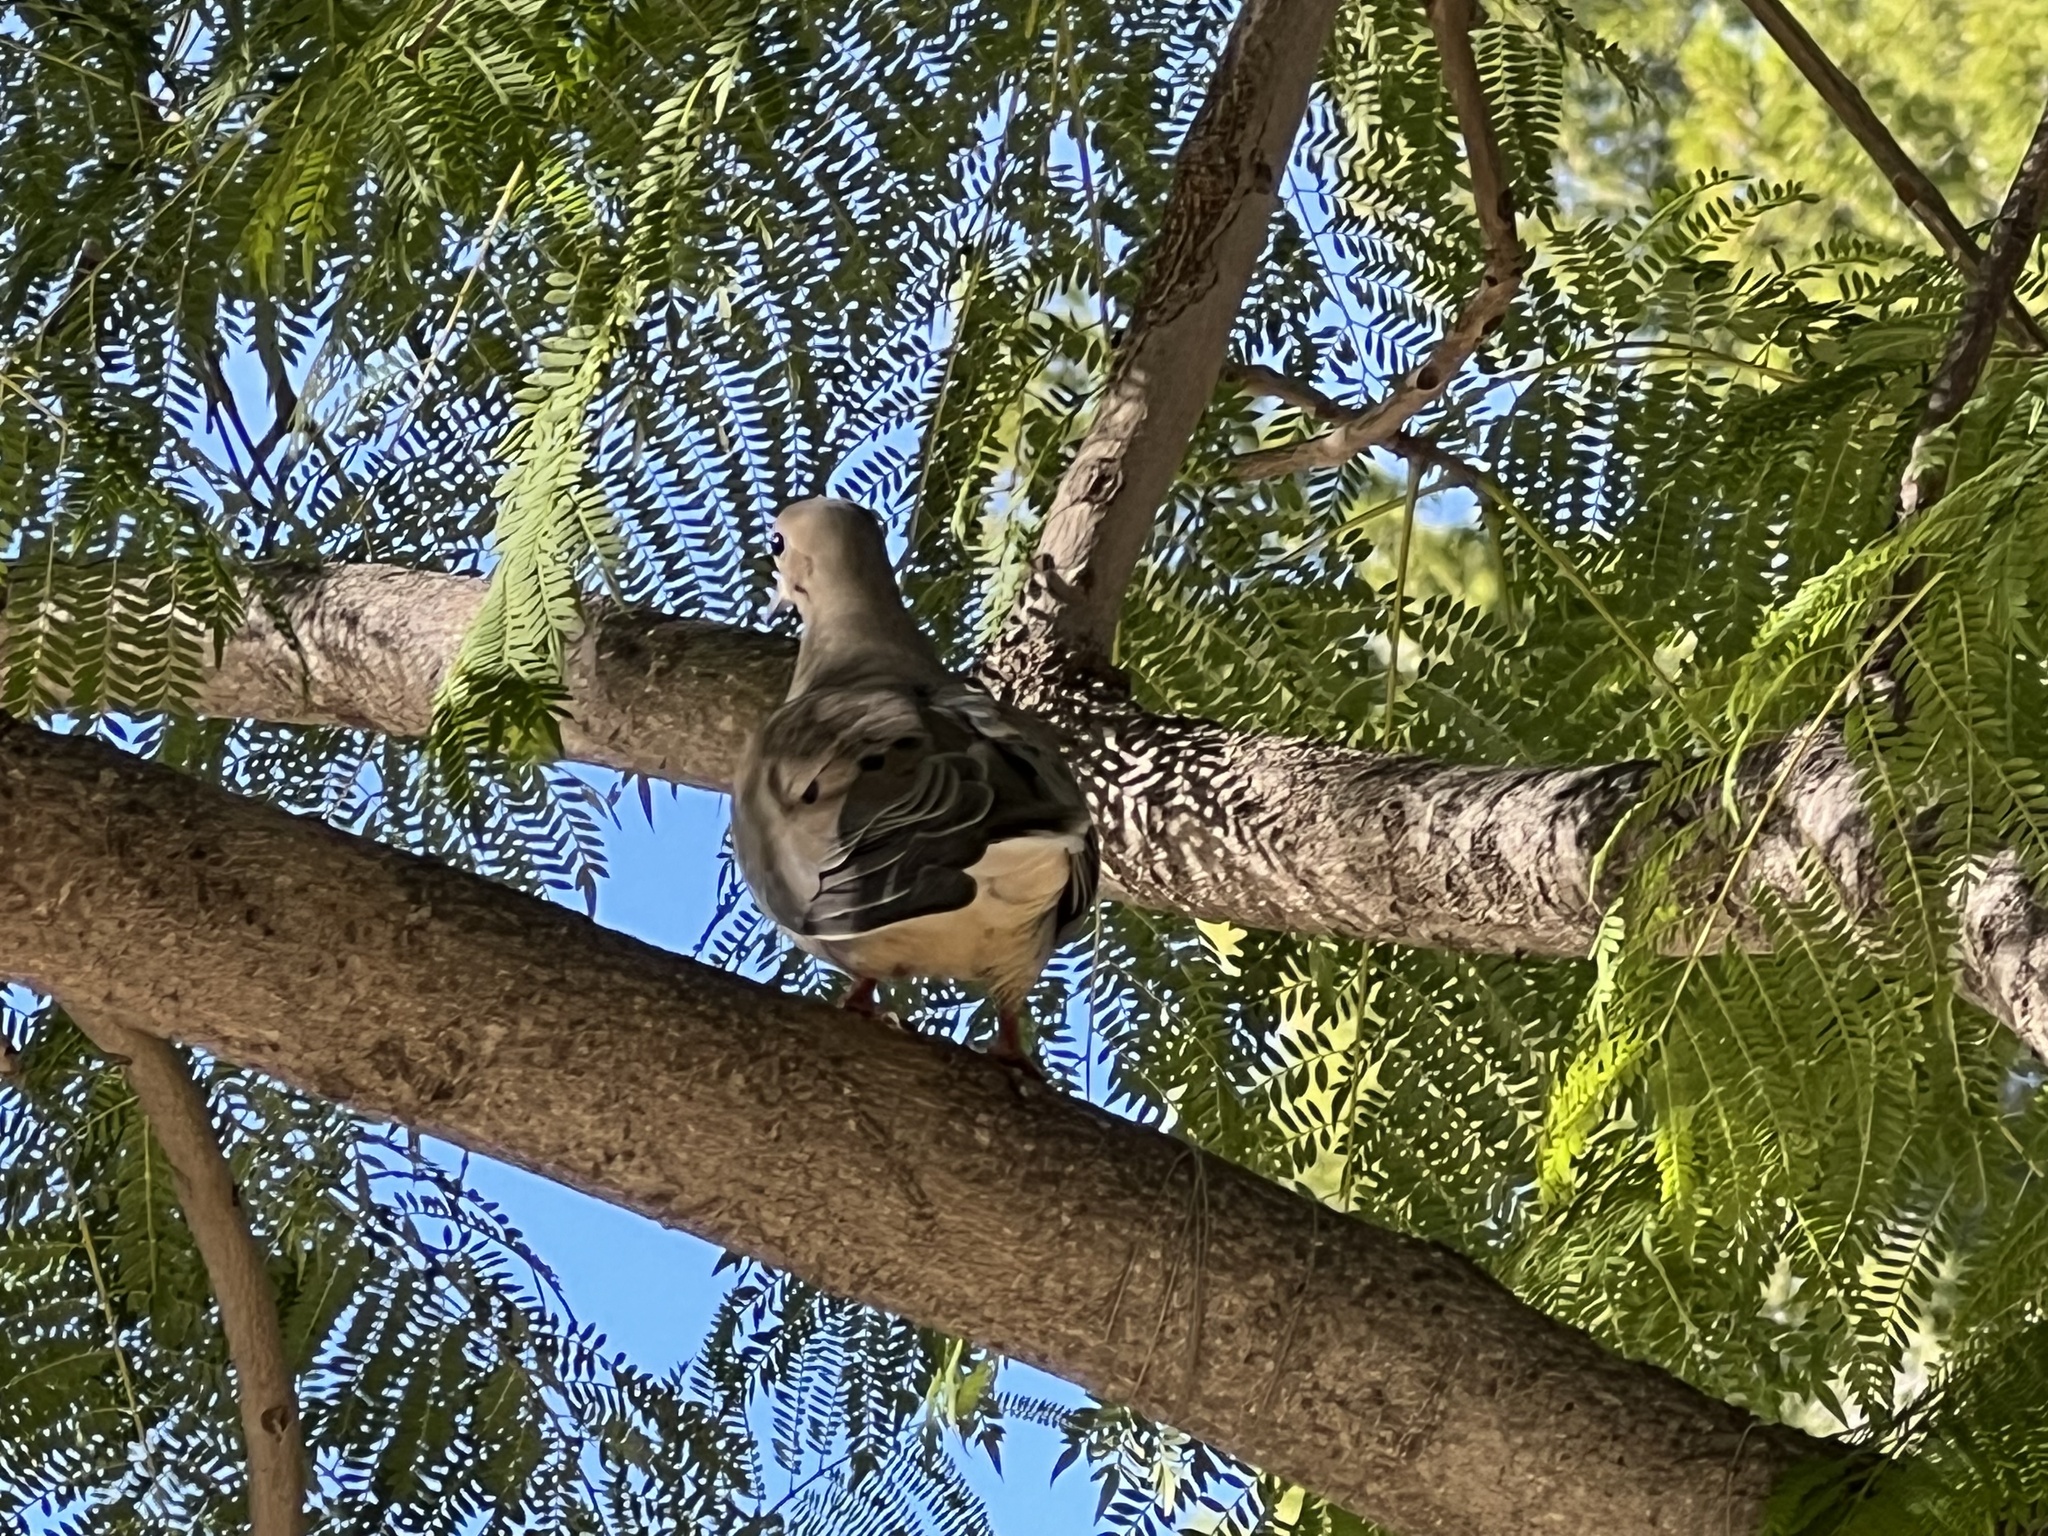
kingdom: Animalia
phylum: Chordata
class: Aves
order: Columbiformes
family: Columbidae
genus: Zenaida
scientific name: Zenaida macroura
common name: Mourning dove
